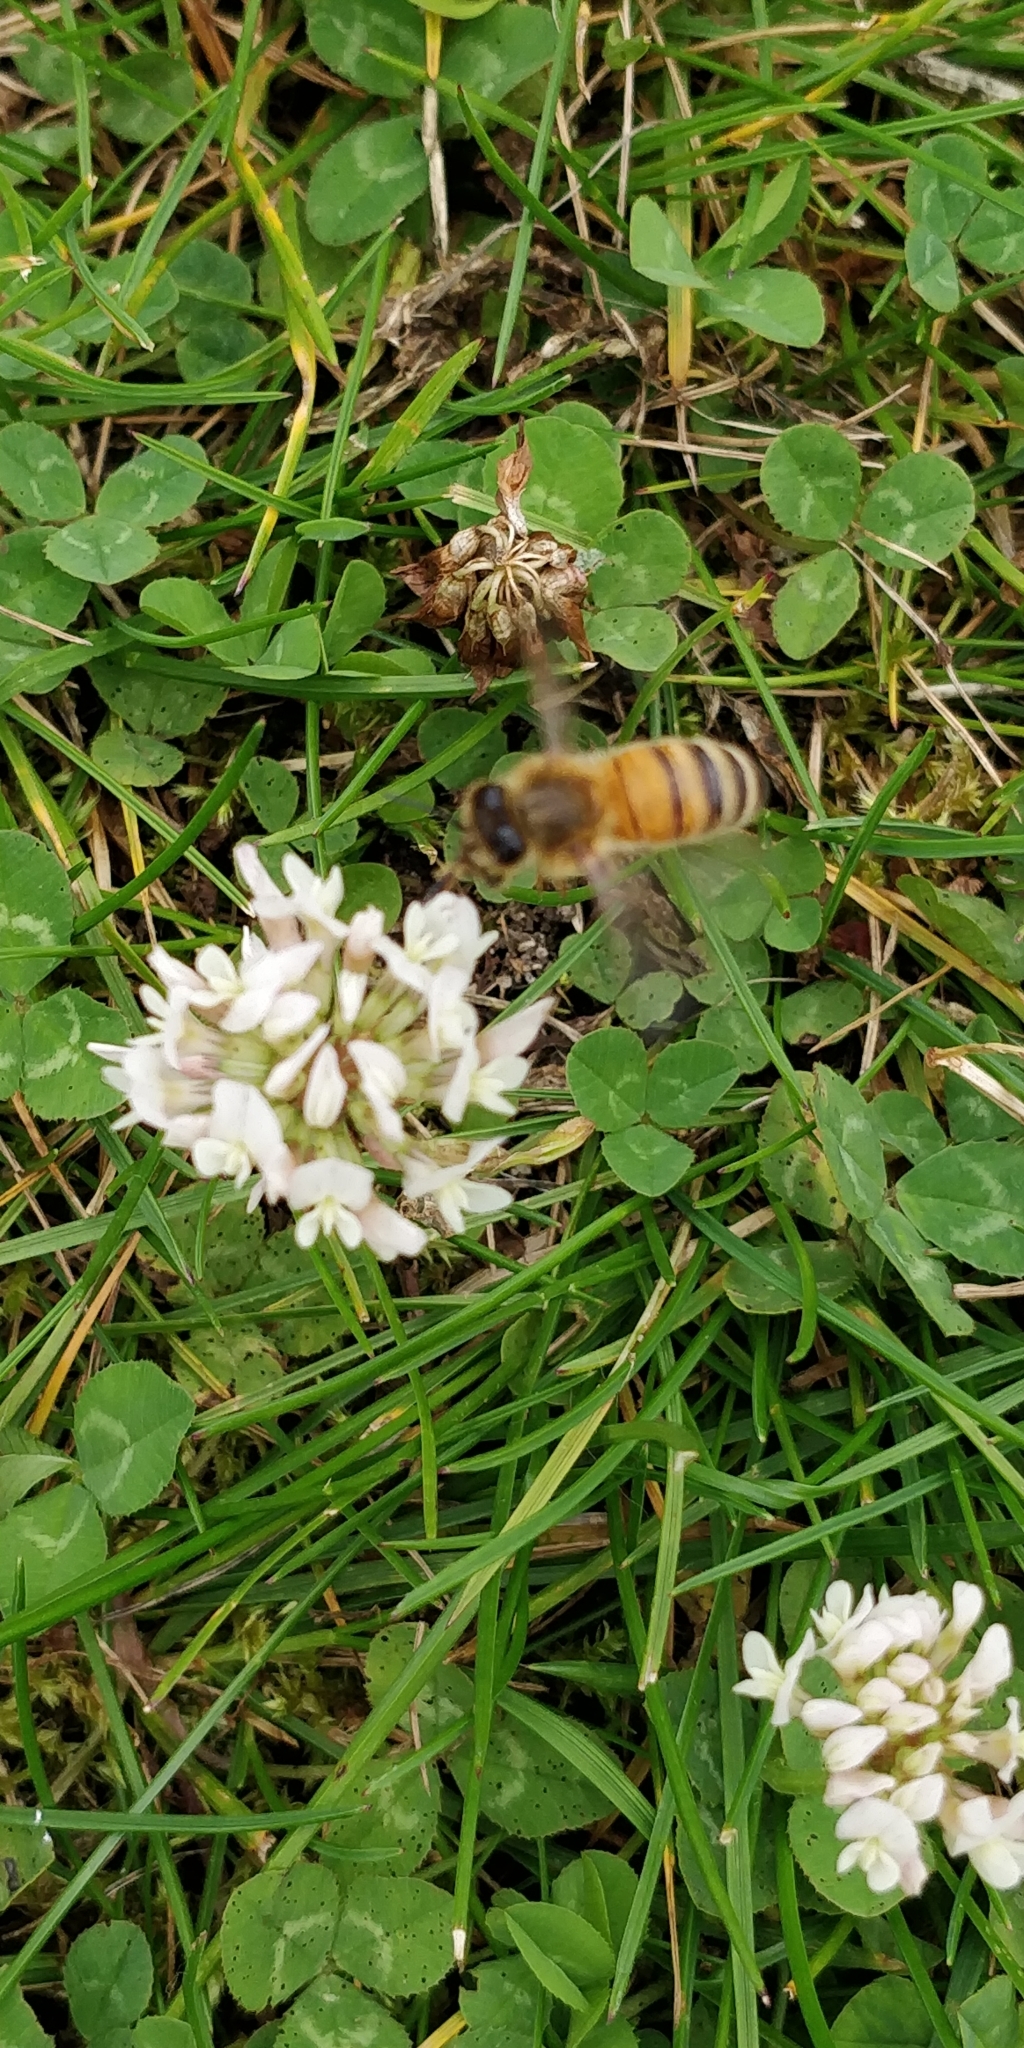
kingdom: Animalia
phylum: Arthropoda
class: Insecta
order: Hymenoptera
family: Apidae
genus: Apis
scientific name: Apis mellifera
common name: Honey bee
